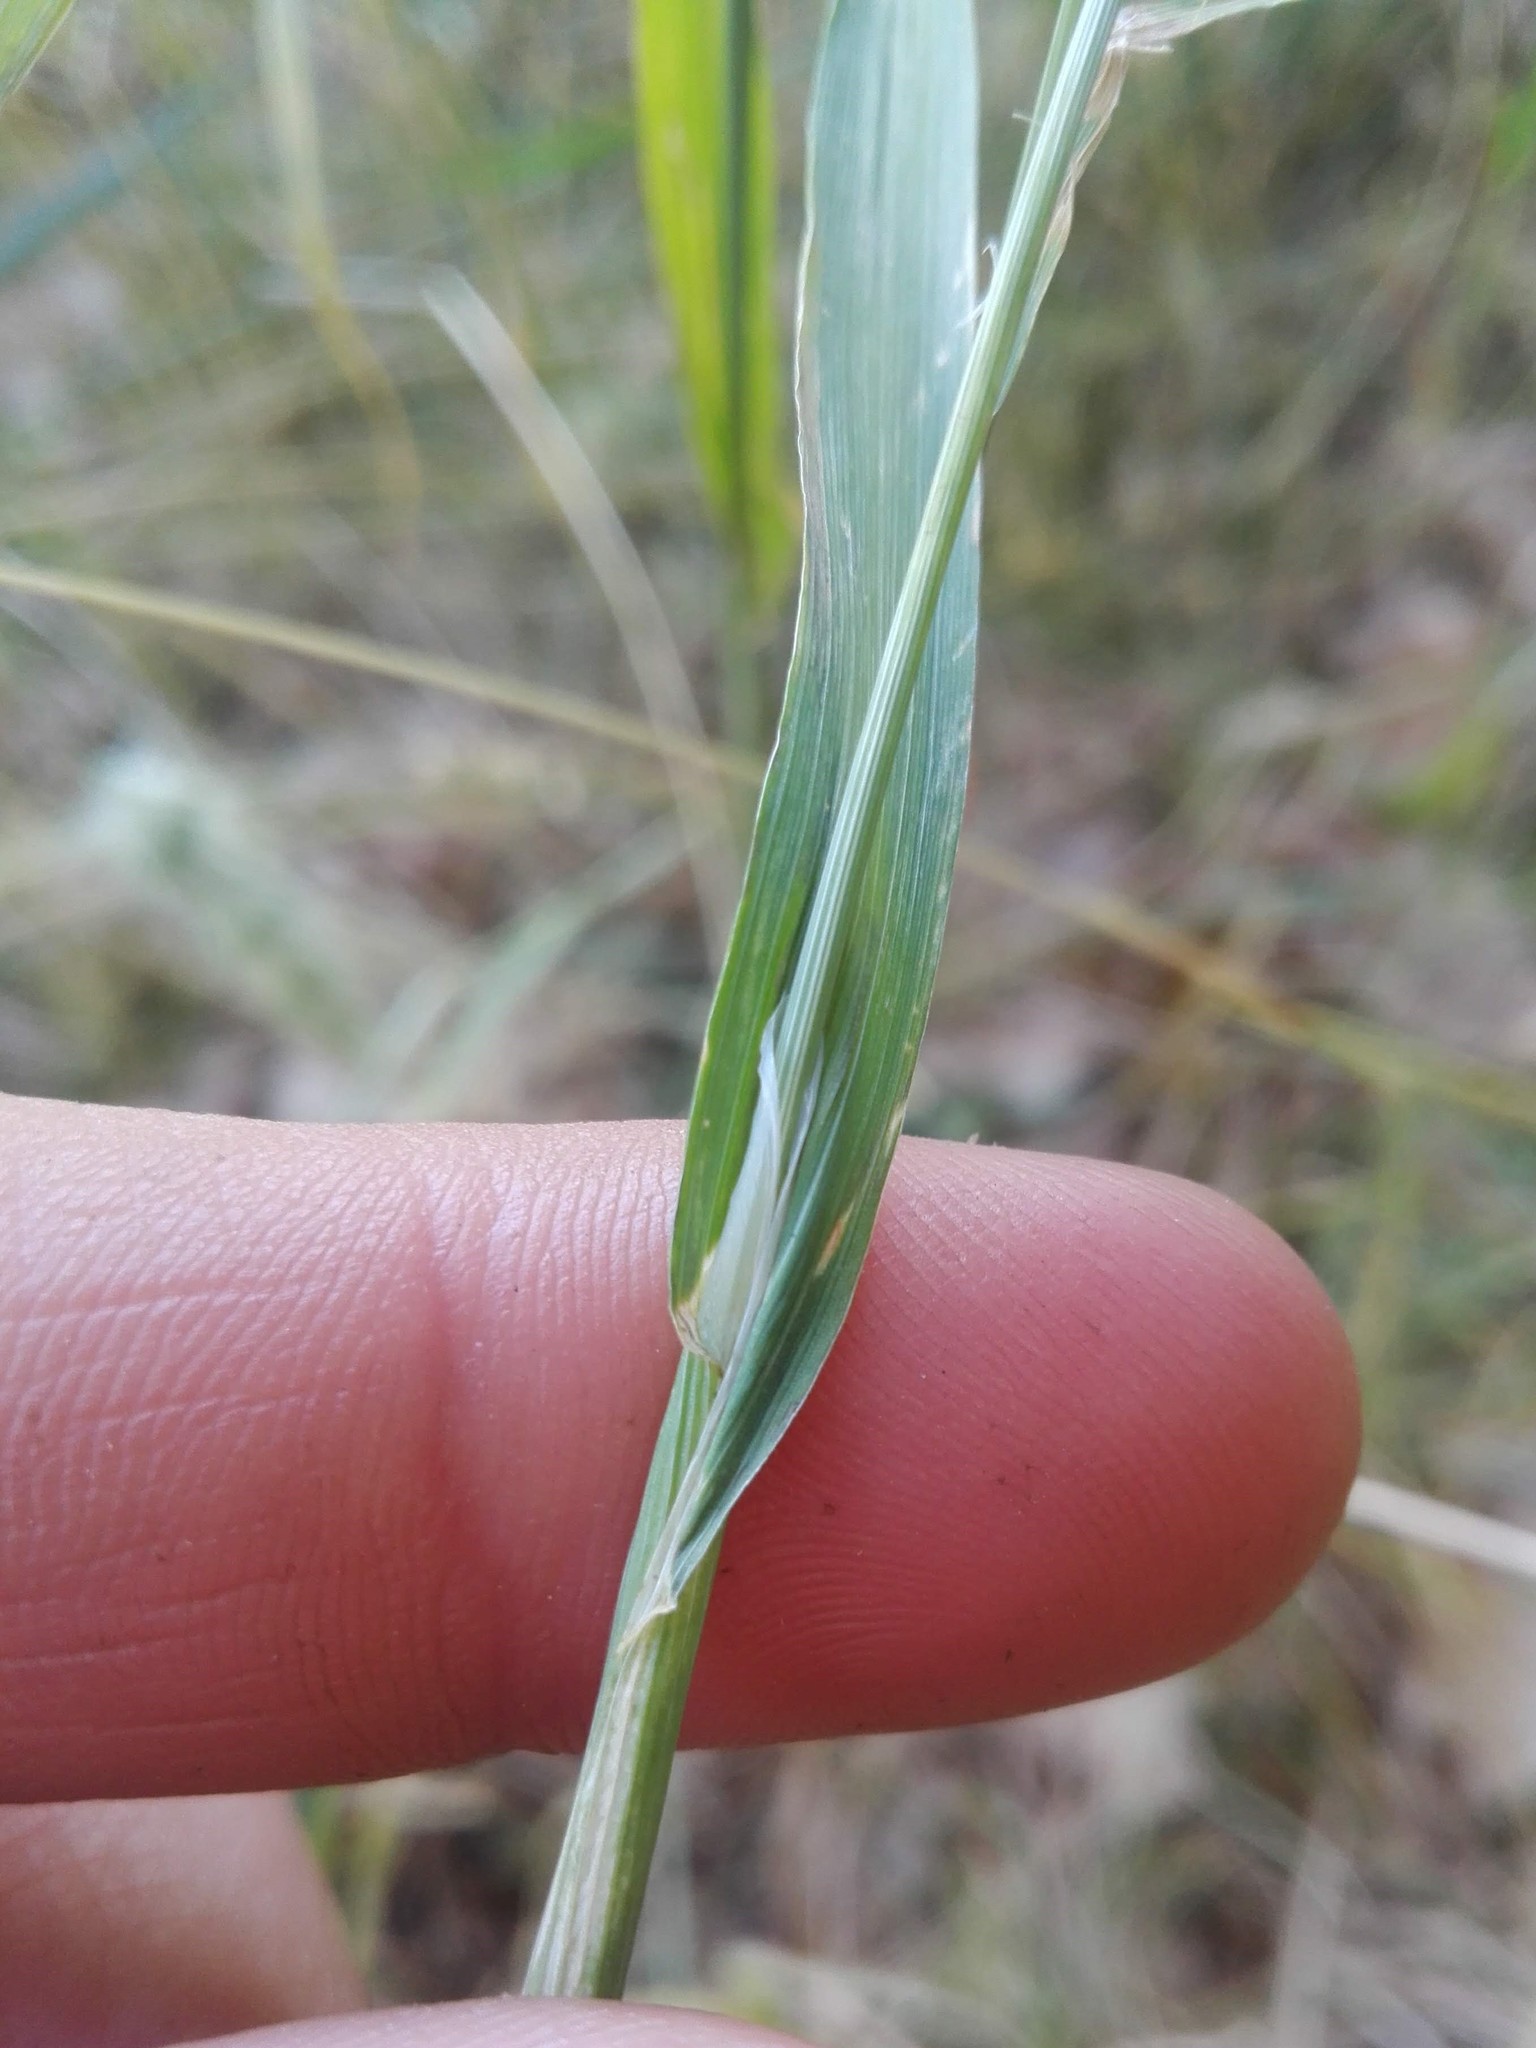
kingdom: Plantae
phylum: Tracheophyta
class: Liliopsida
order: Poales
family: Poaceae
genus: Cynosurus
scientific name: Cynosurus echinatus
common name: Rough dog's-tail
